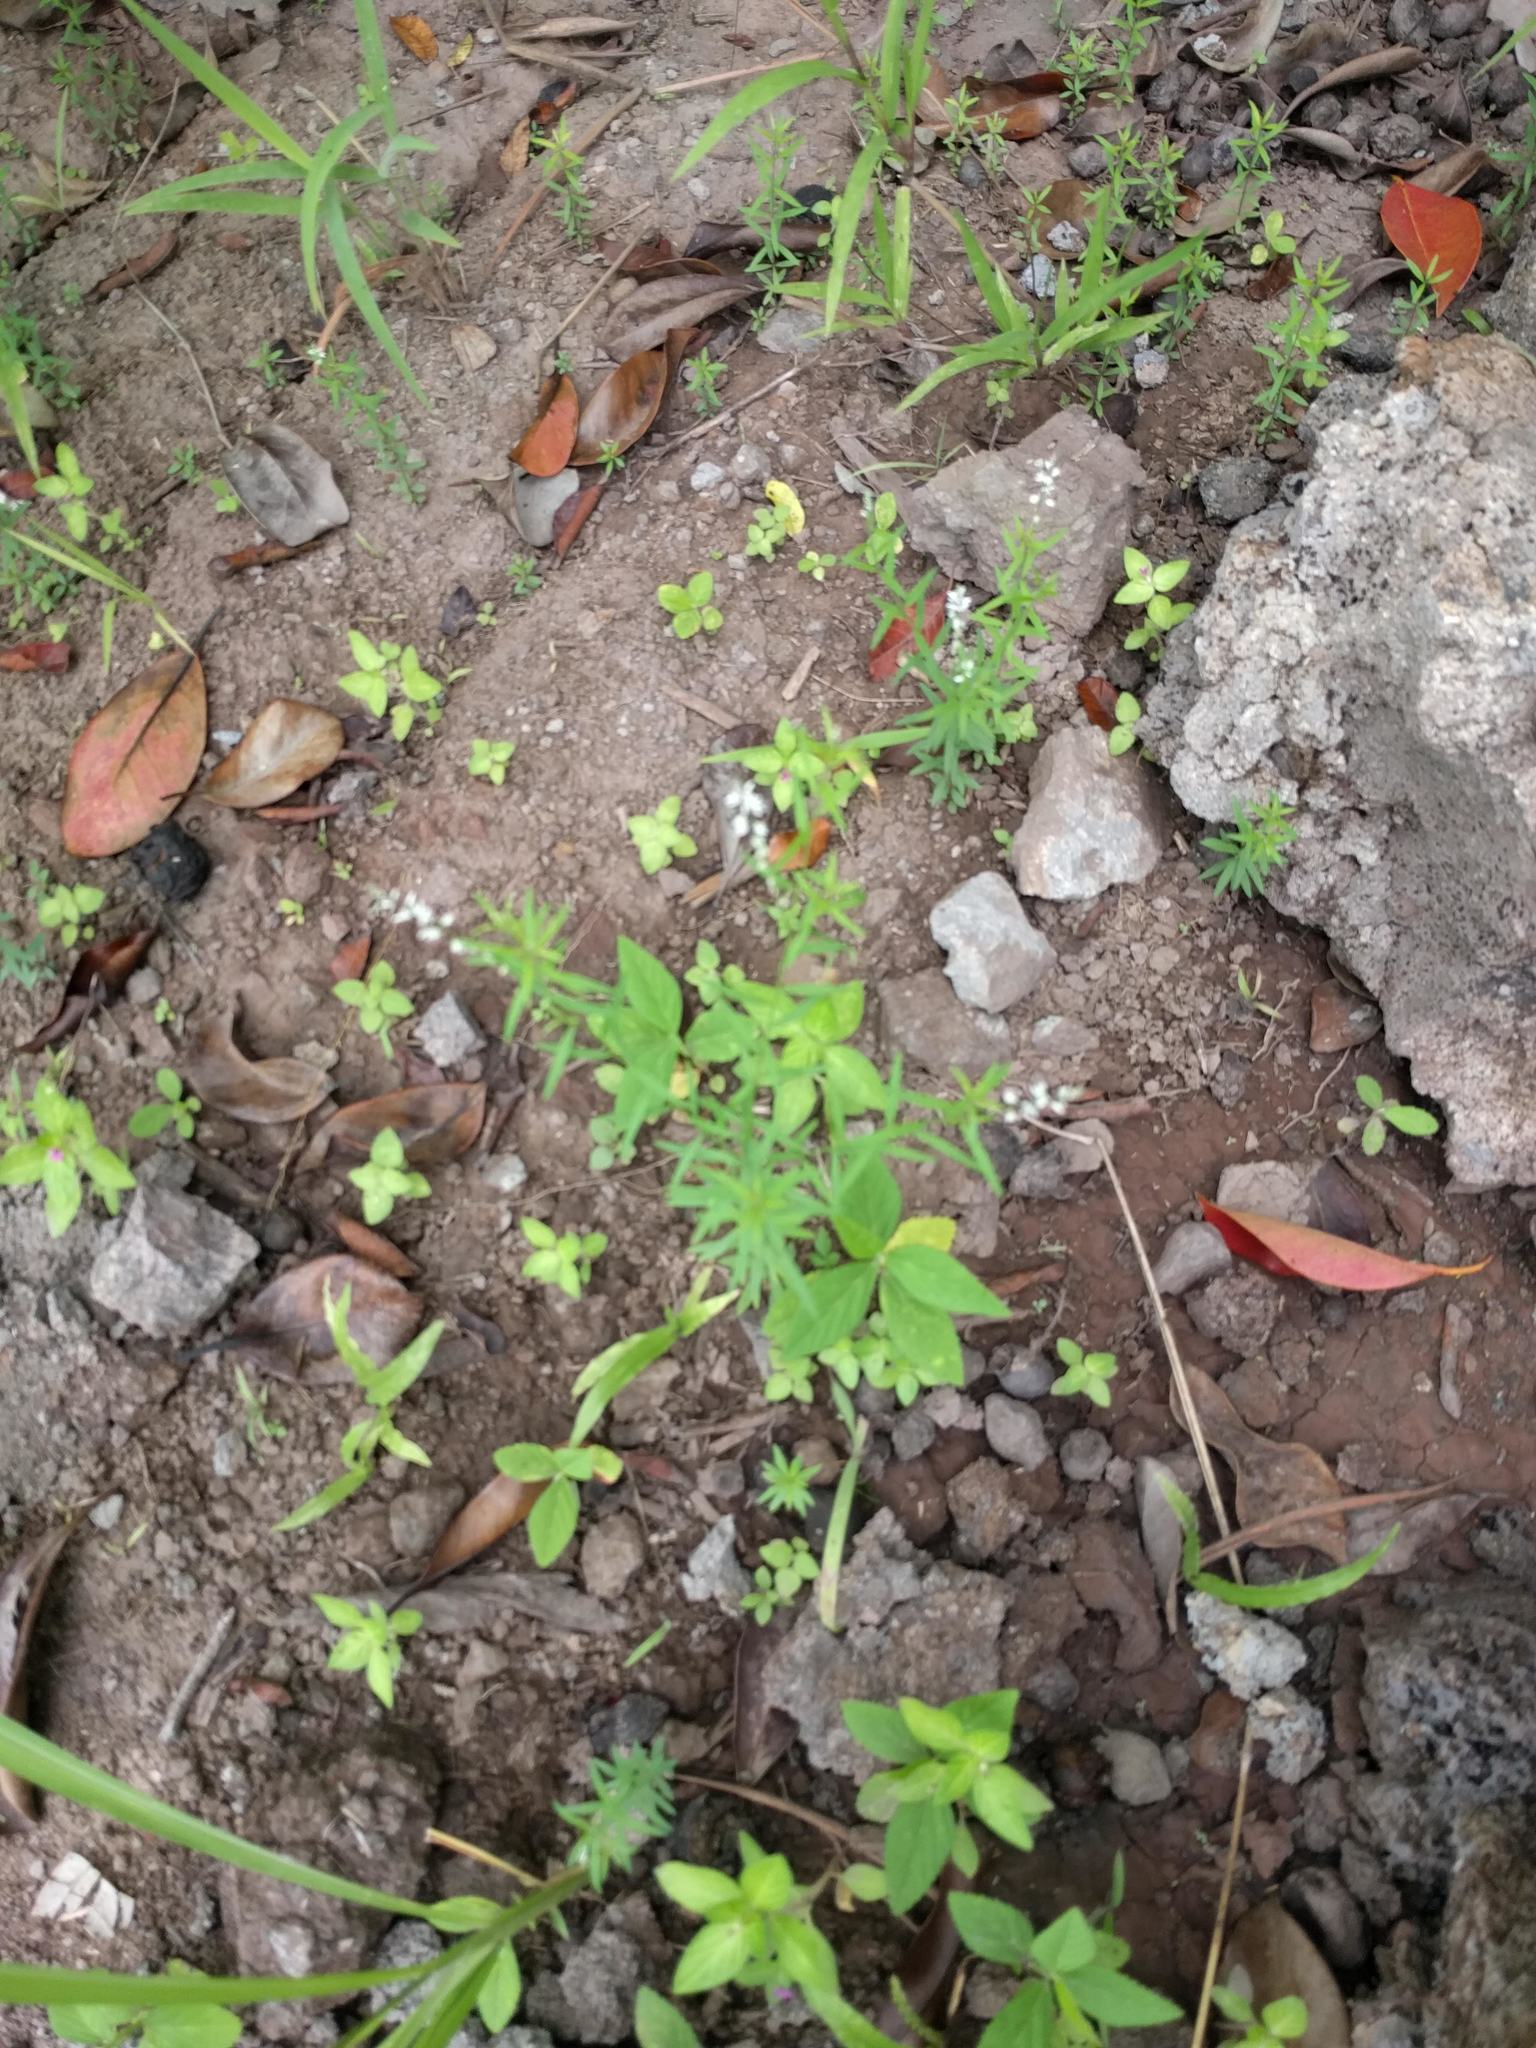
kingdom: Plantae
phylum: Tracheophyta
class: Magnoliopsida
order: Fabales
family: Polygalaceae
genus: Polygala
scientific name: Polygala paniculata
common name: Orosne
